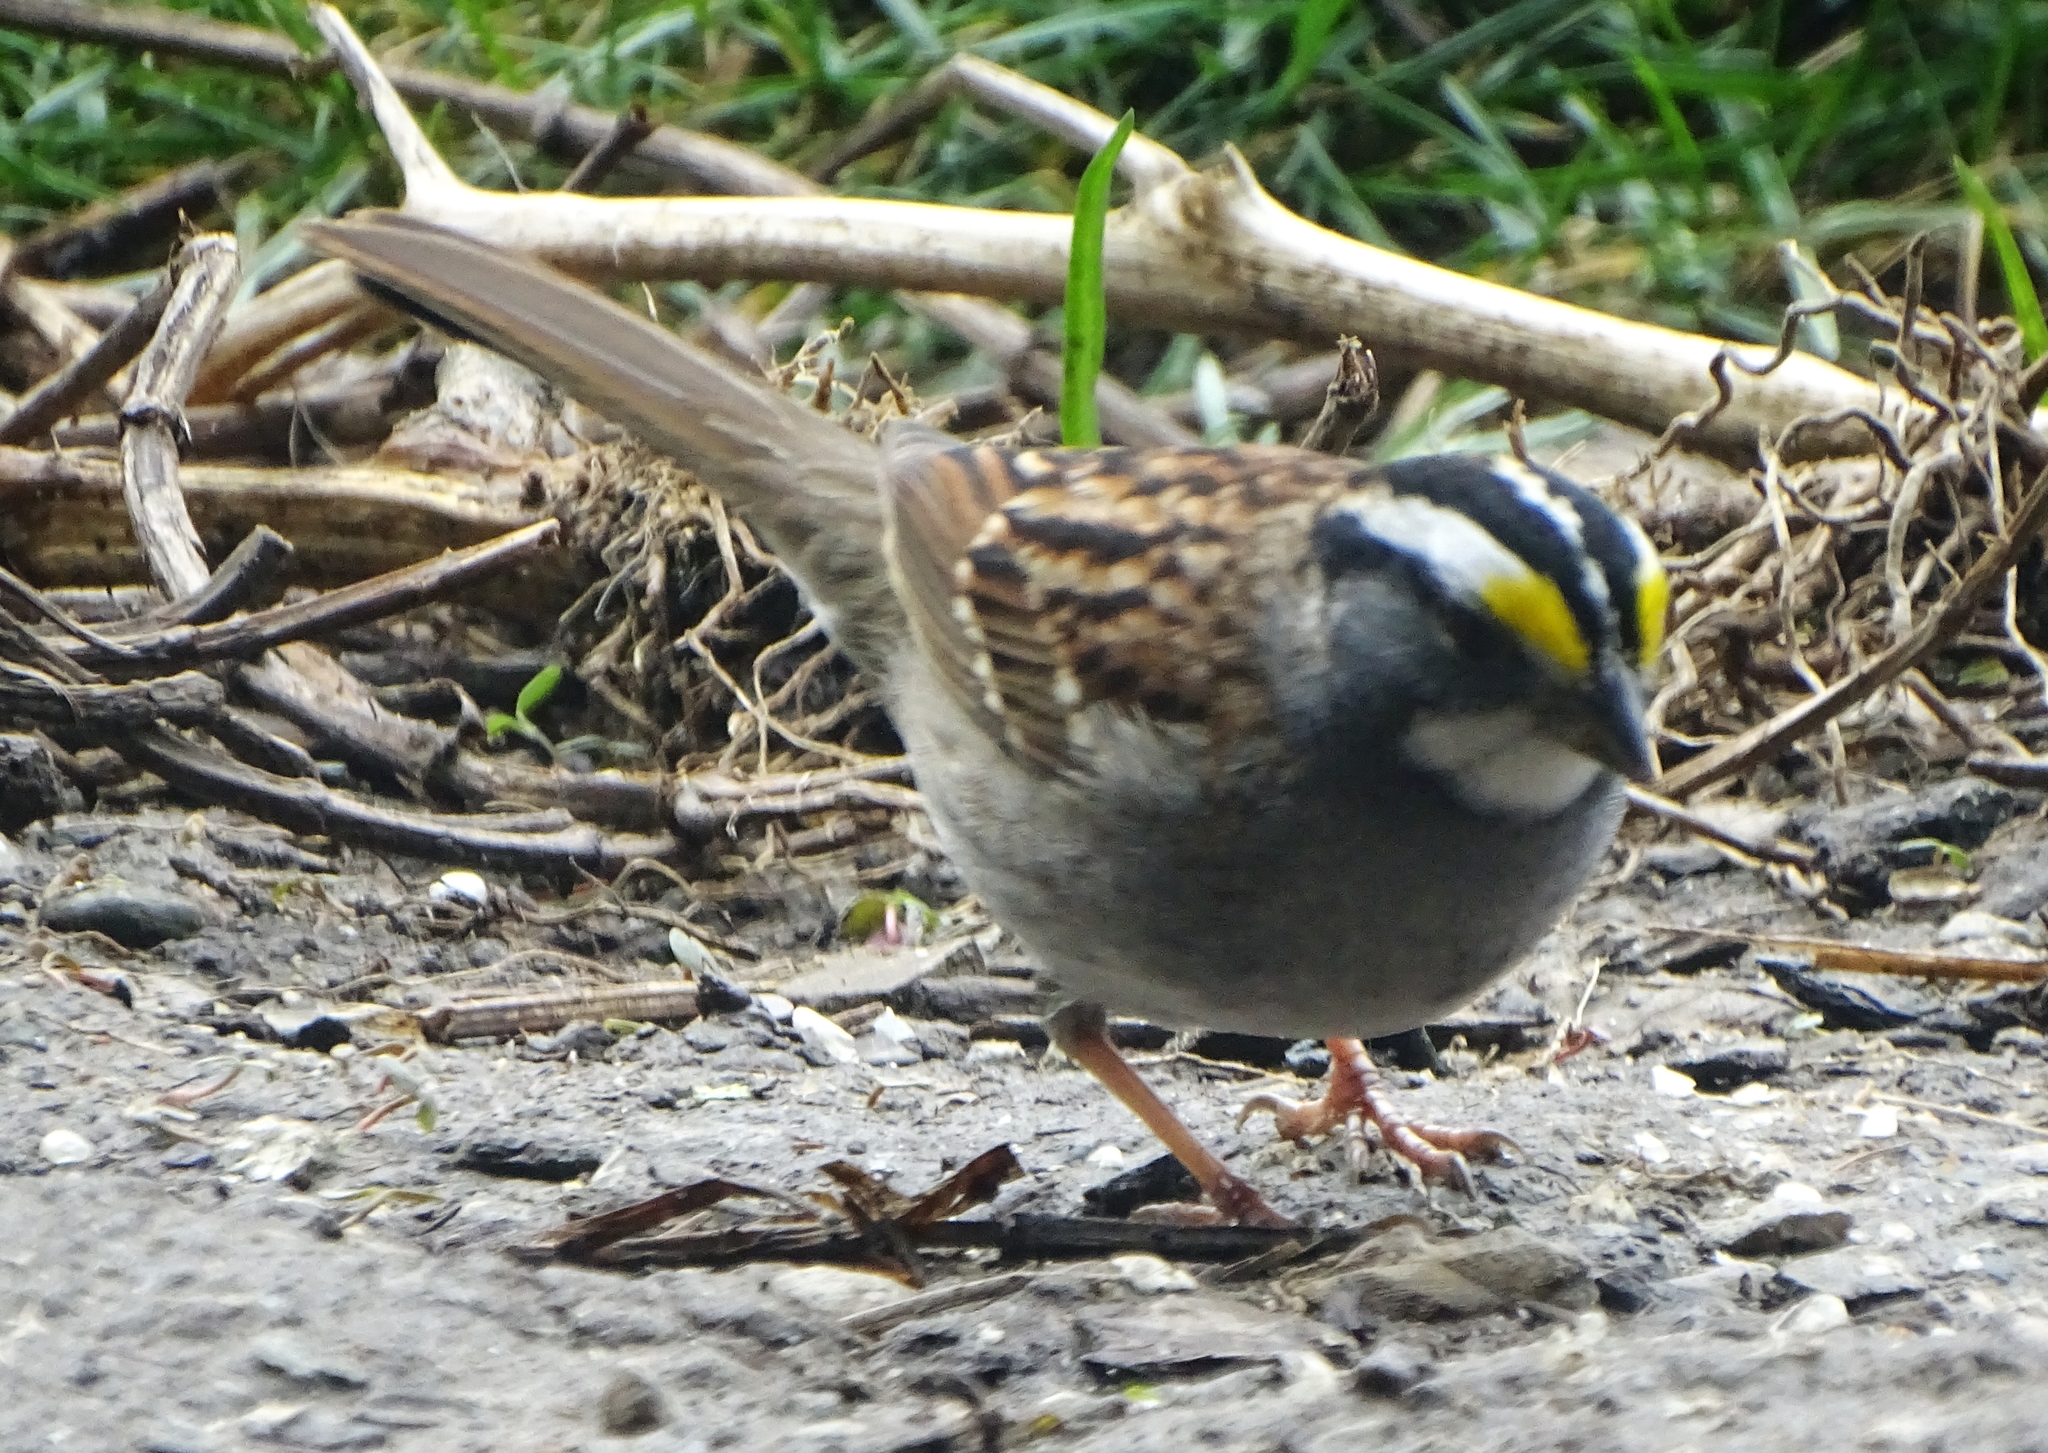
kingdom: Animalia
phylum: Chordata
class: Aves
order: Passeriformes
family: Passerellidae
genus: Zonotrichia
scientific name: Zonotrichia albicollis
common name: White-throated sparrow
